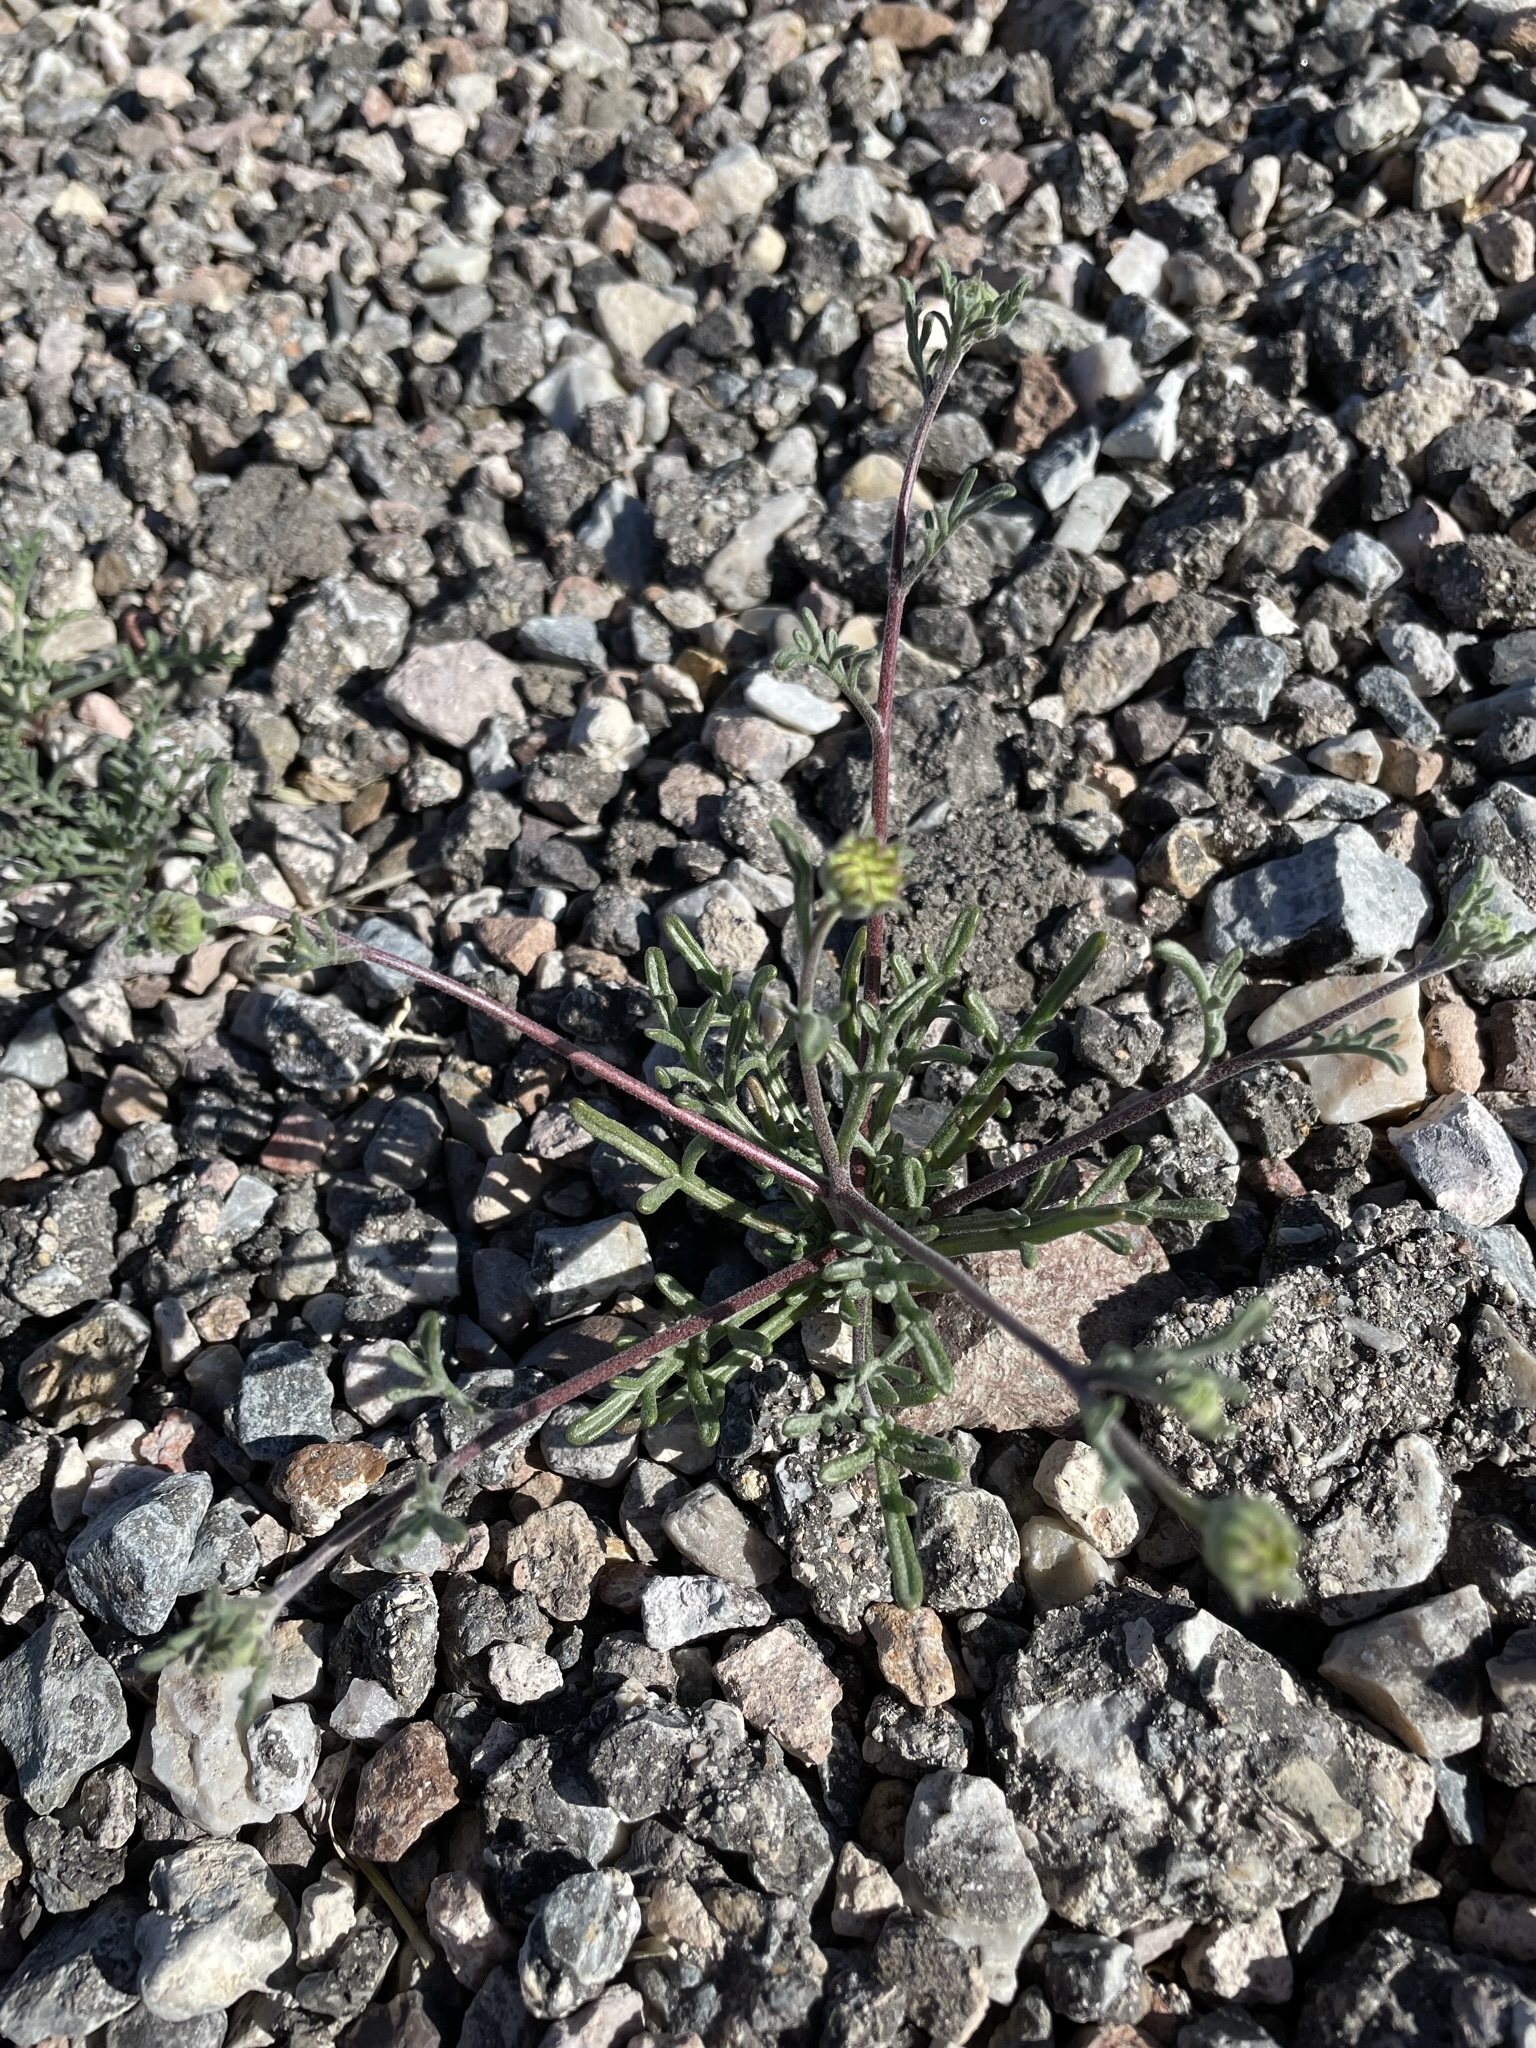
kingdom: Plantae
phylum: Tracheophyta
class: Magnoliopsida
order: Asterales
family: Asteraceae
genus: Chaenactis
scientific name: Chaenactis stevioides
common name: Desert pincushion
